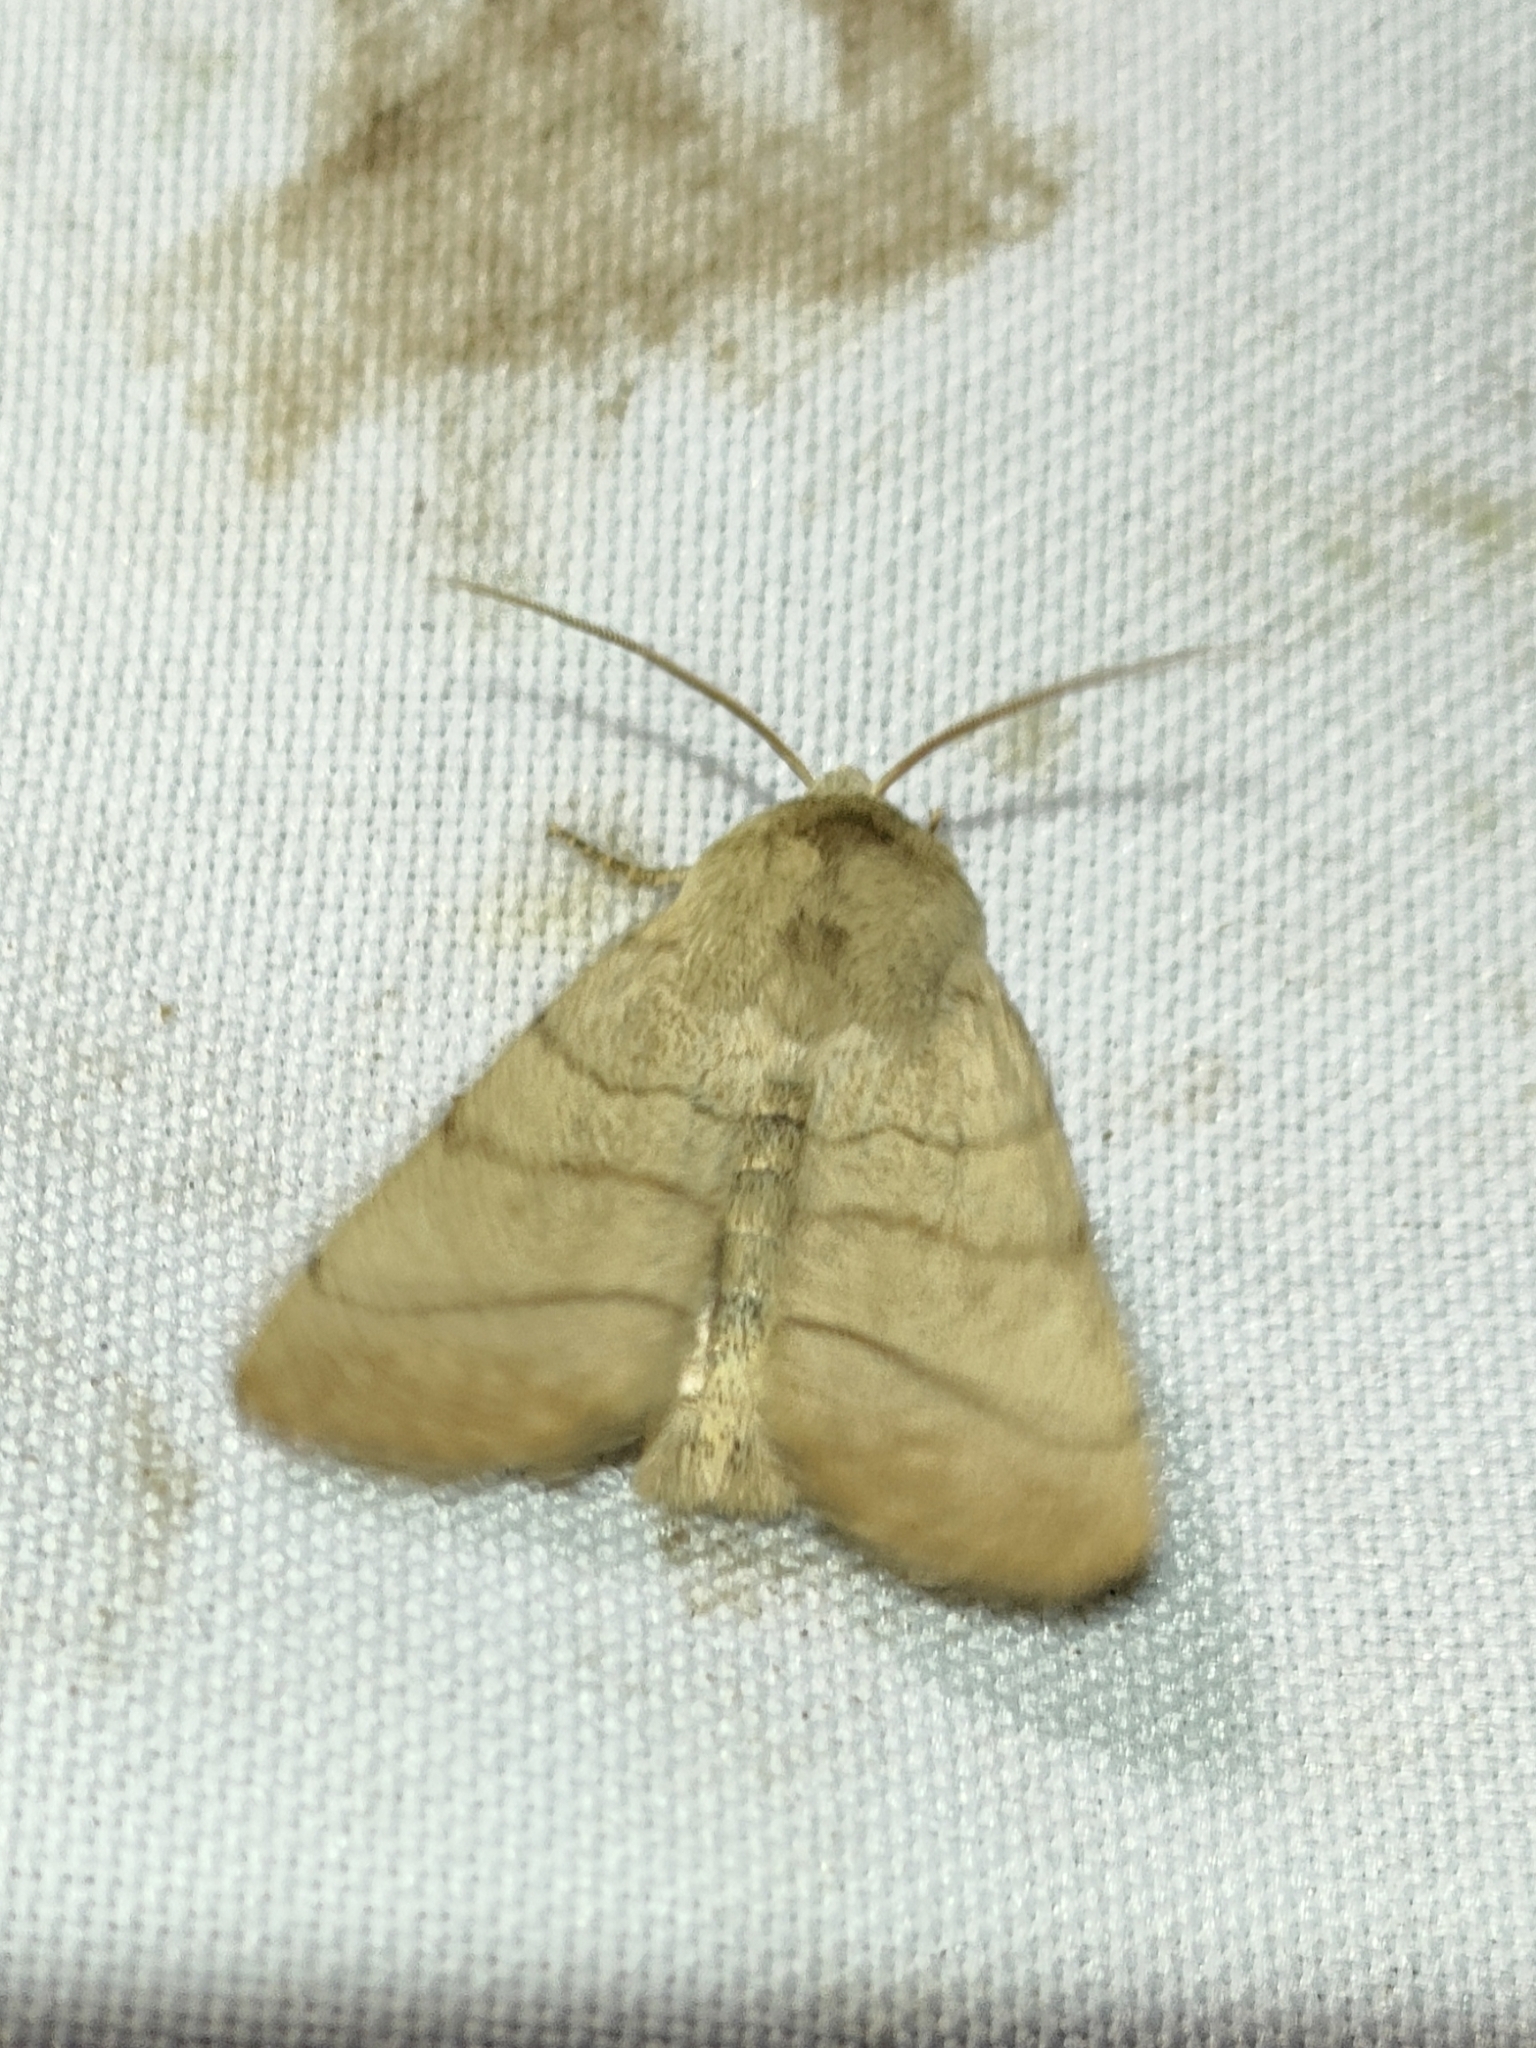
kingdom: Animalia
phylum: Arthropoda
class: Insecta
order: Lepidoptera
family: Noctuidae
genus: Charanyca
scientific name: Charanyca trigrammica
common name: Treble lines
